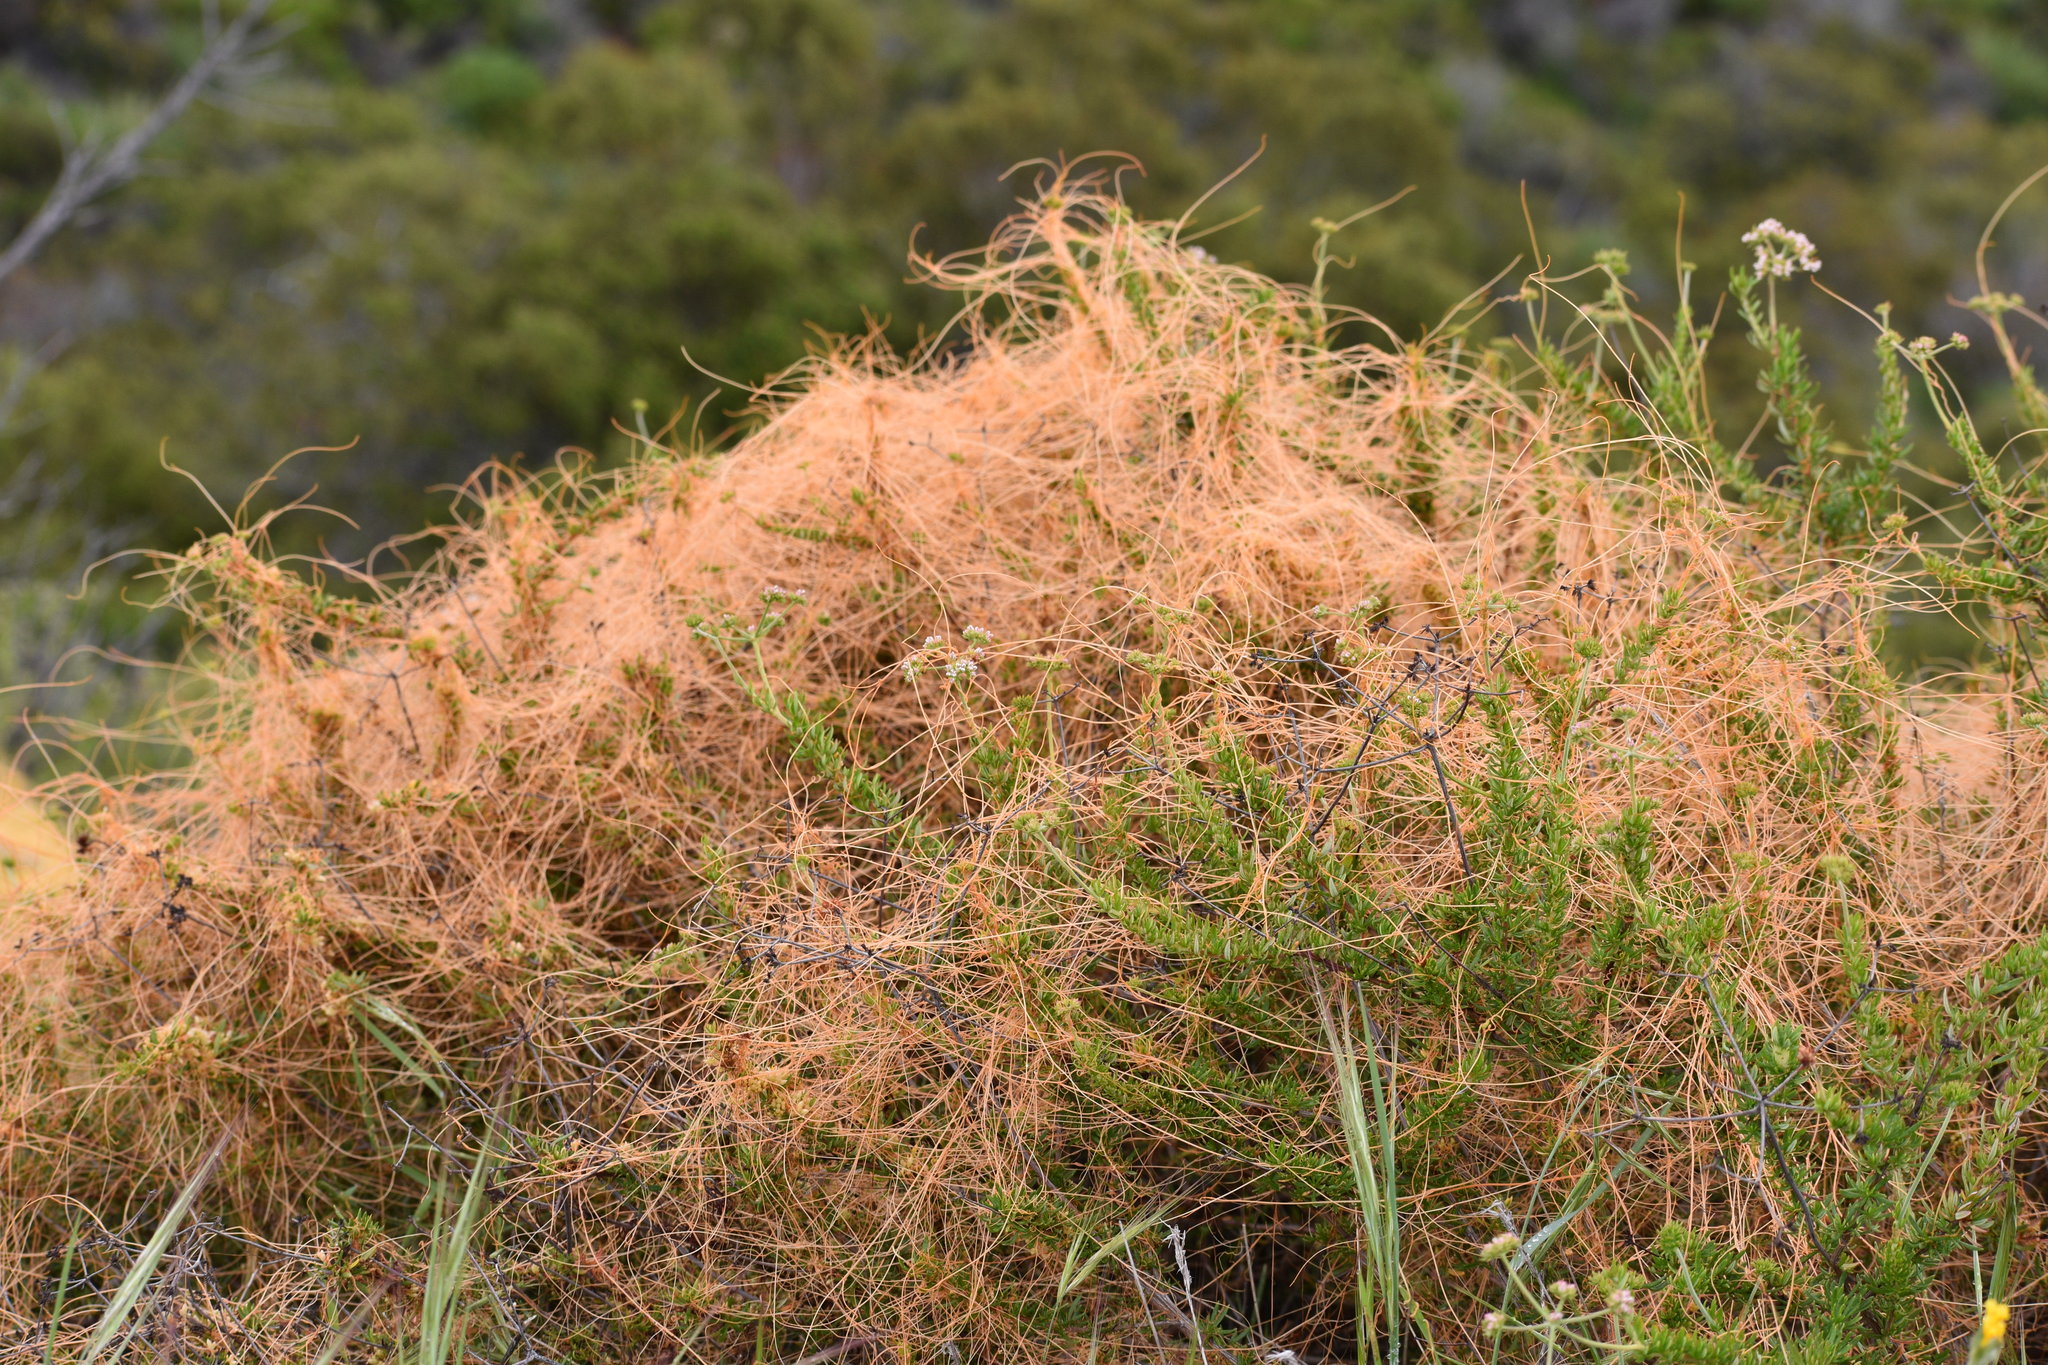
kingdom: Plantae
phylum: Tracheophyta
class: Magnoliopsida
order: Solanales
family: Convolvulaceae
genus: Cuscuta
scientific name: Cuscuta californica
